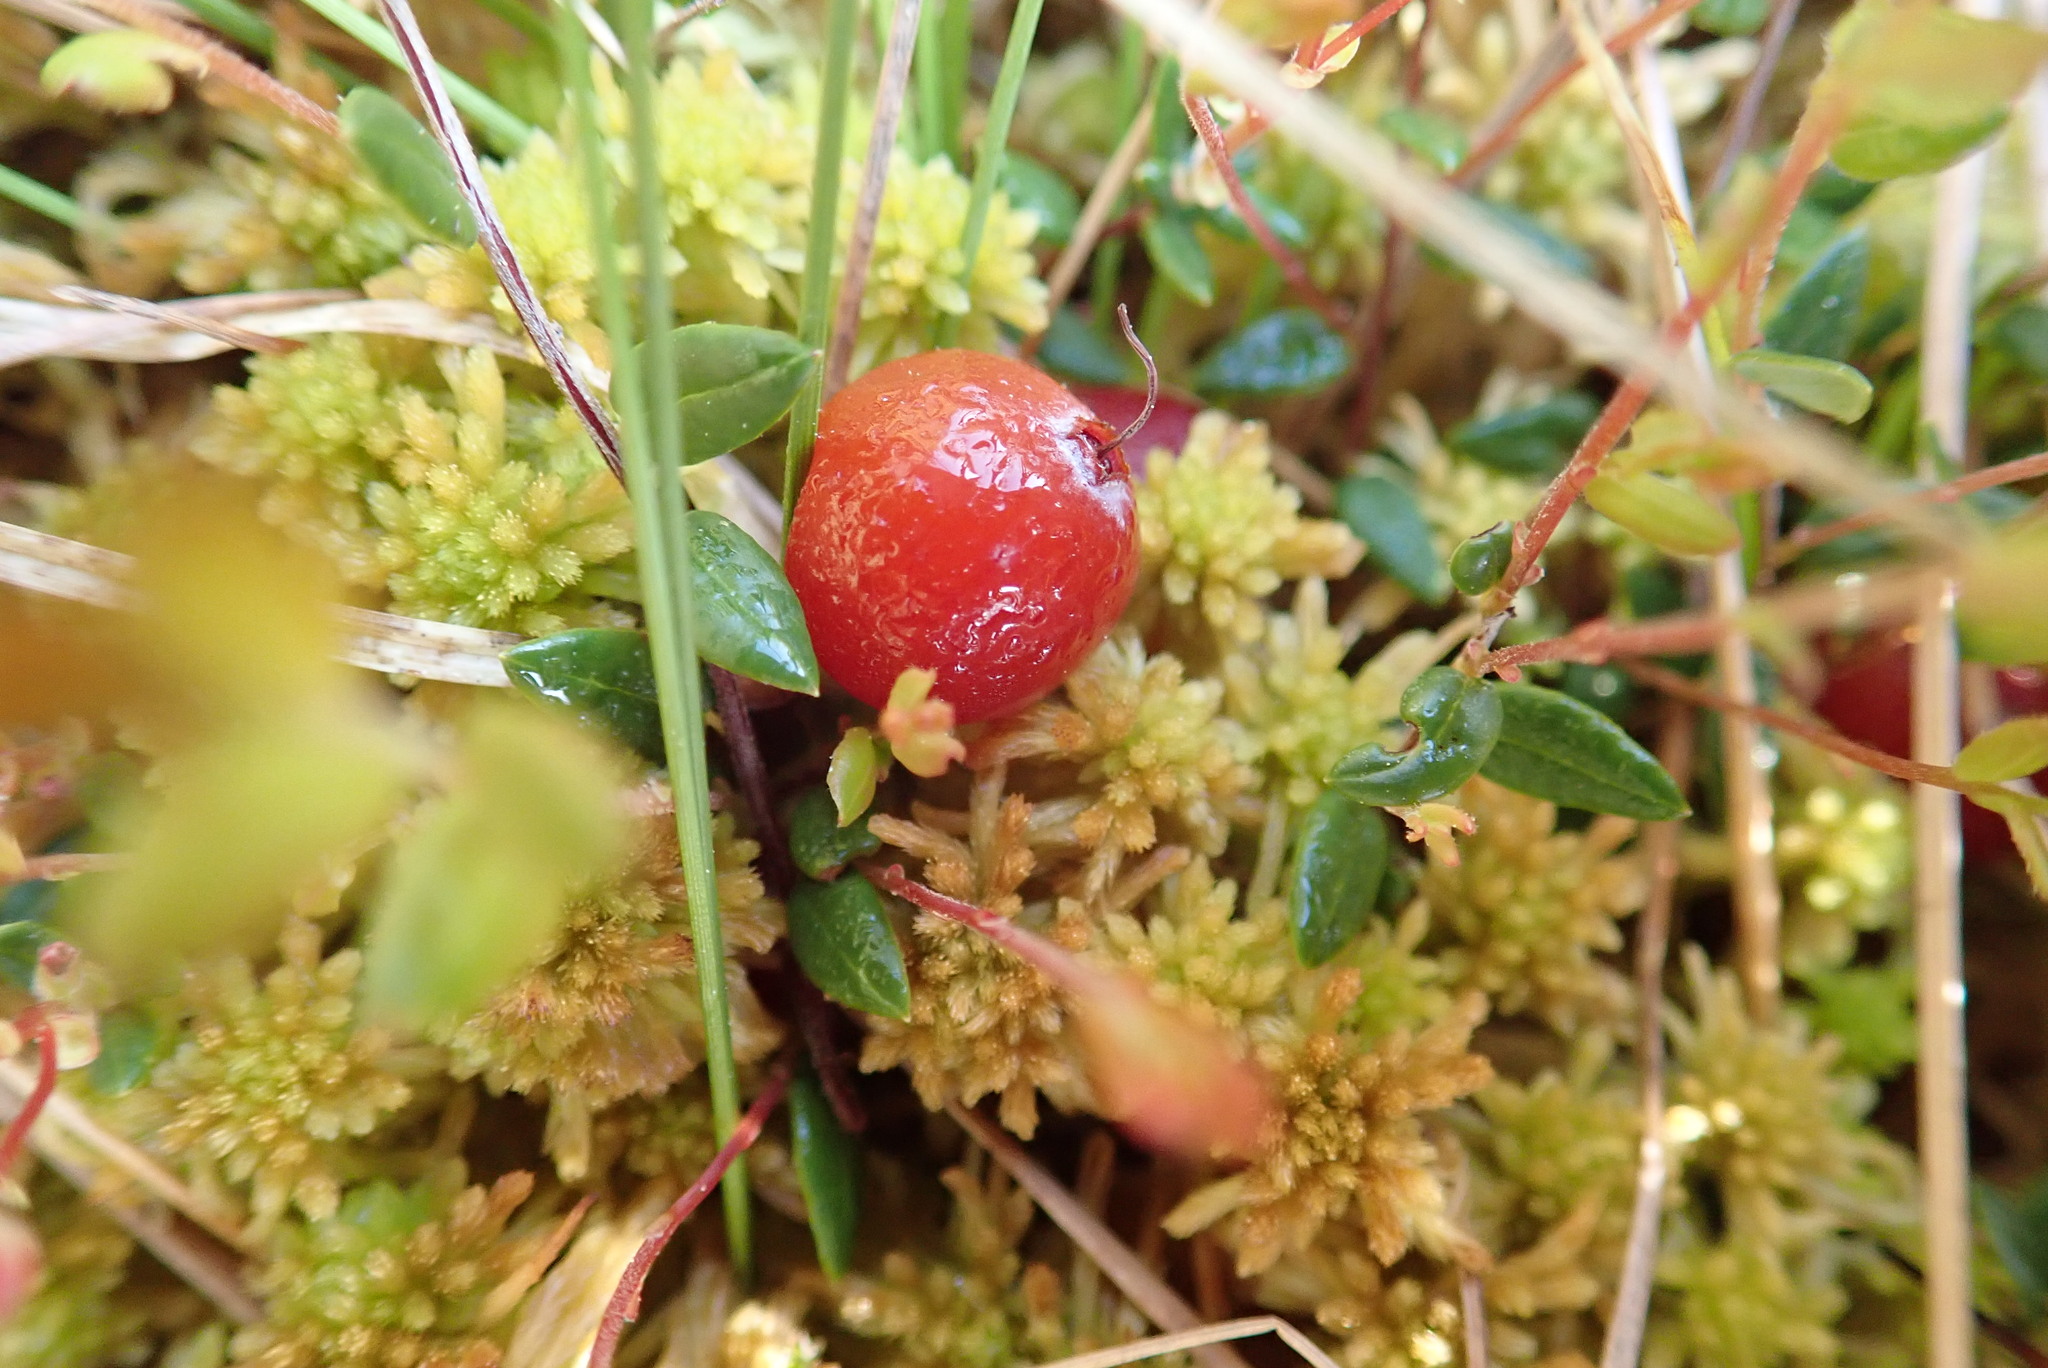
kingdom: Plantae
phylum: Tracheophyta
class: Magnoliopsida
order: Ericales
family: Ericaceae
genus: Vaccinium
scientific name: Vaccinium oxycoccos
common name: Cranberry
